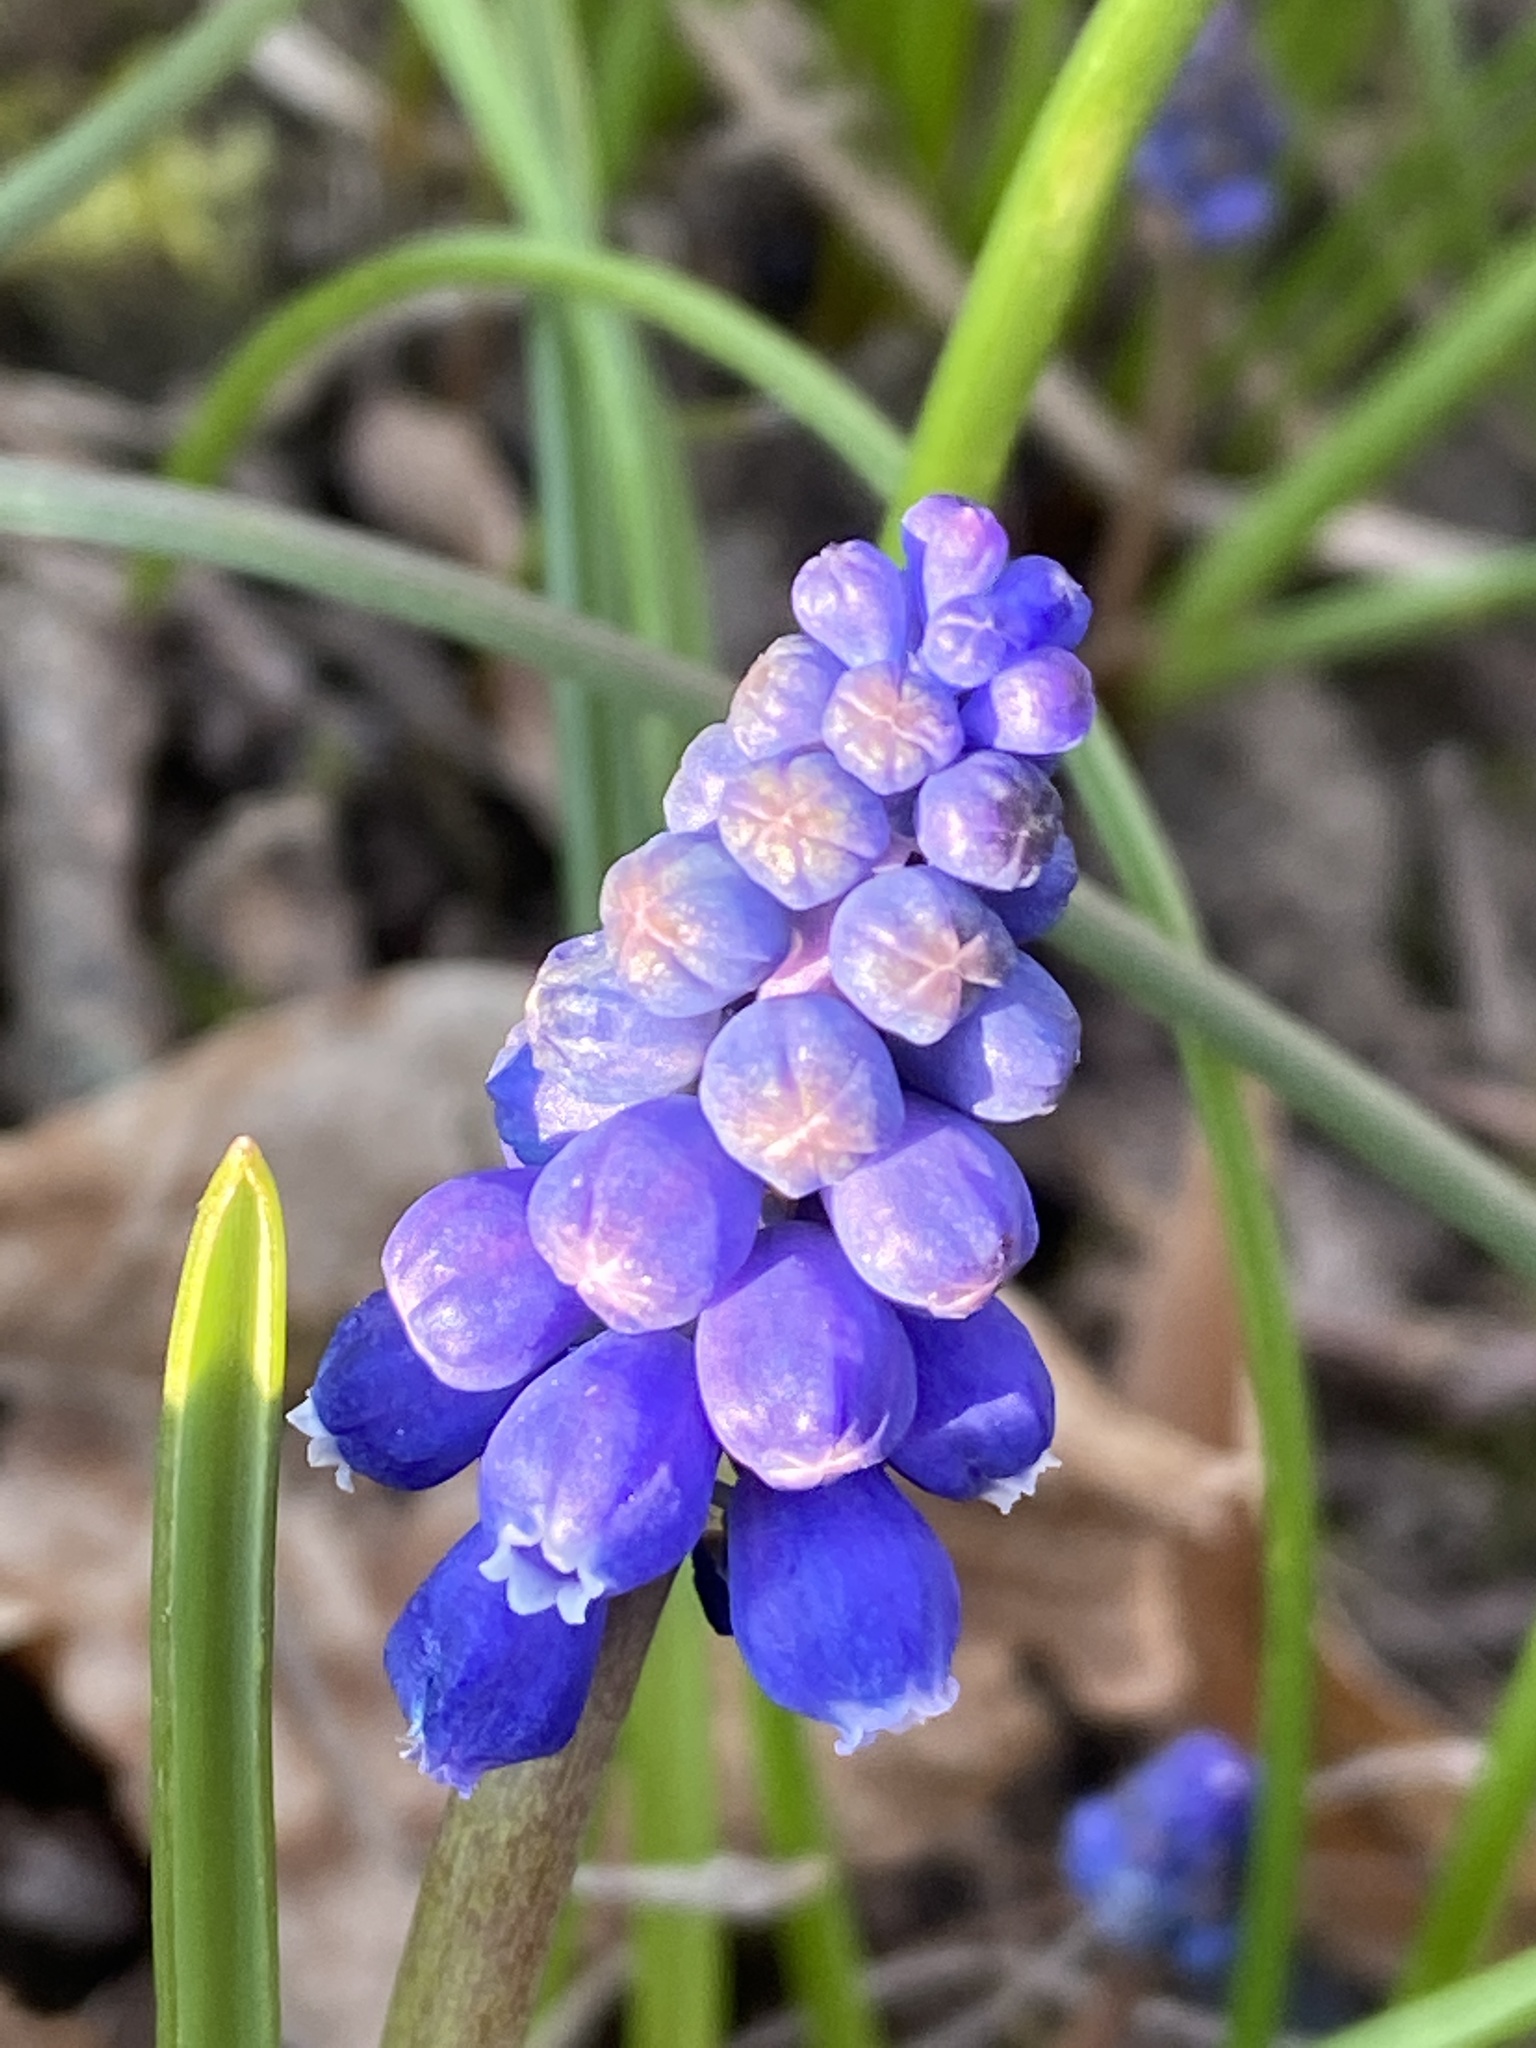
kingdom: Plantae
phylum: Tracheophyta
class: Liliopsida
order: Asparagales
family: Asparagaceae
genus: Muscari
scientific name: Muscari botryoides
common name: Compact grape-hyacinth
